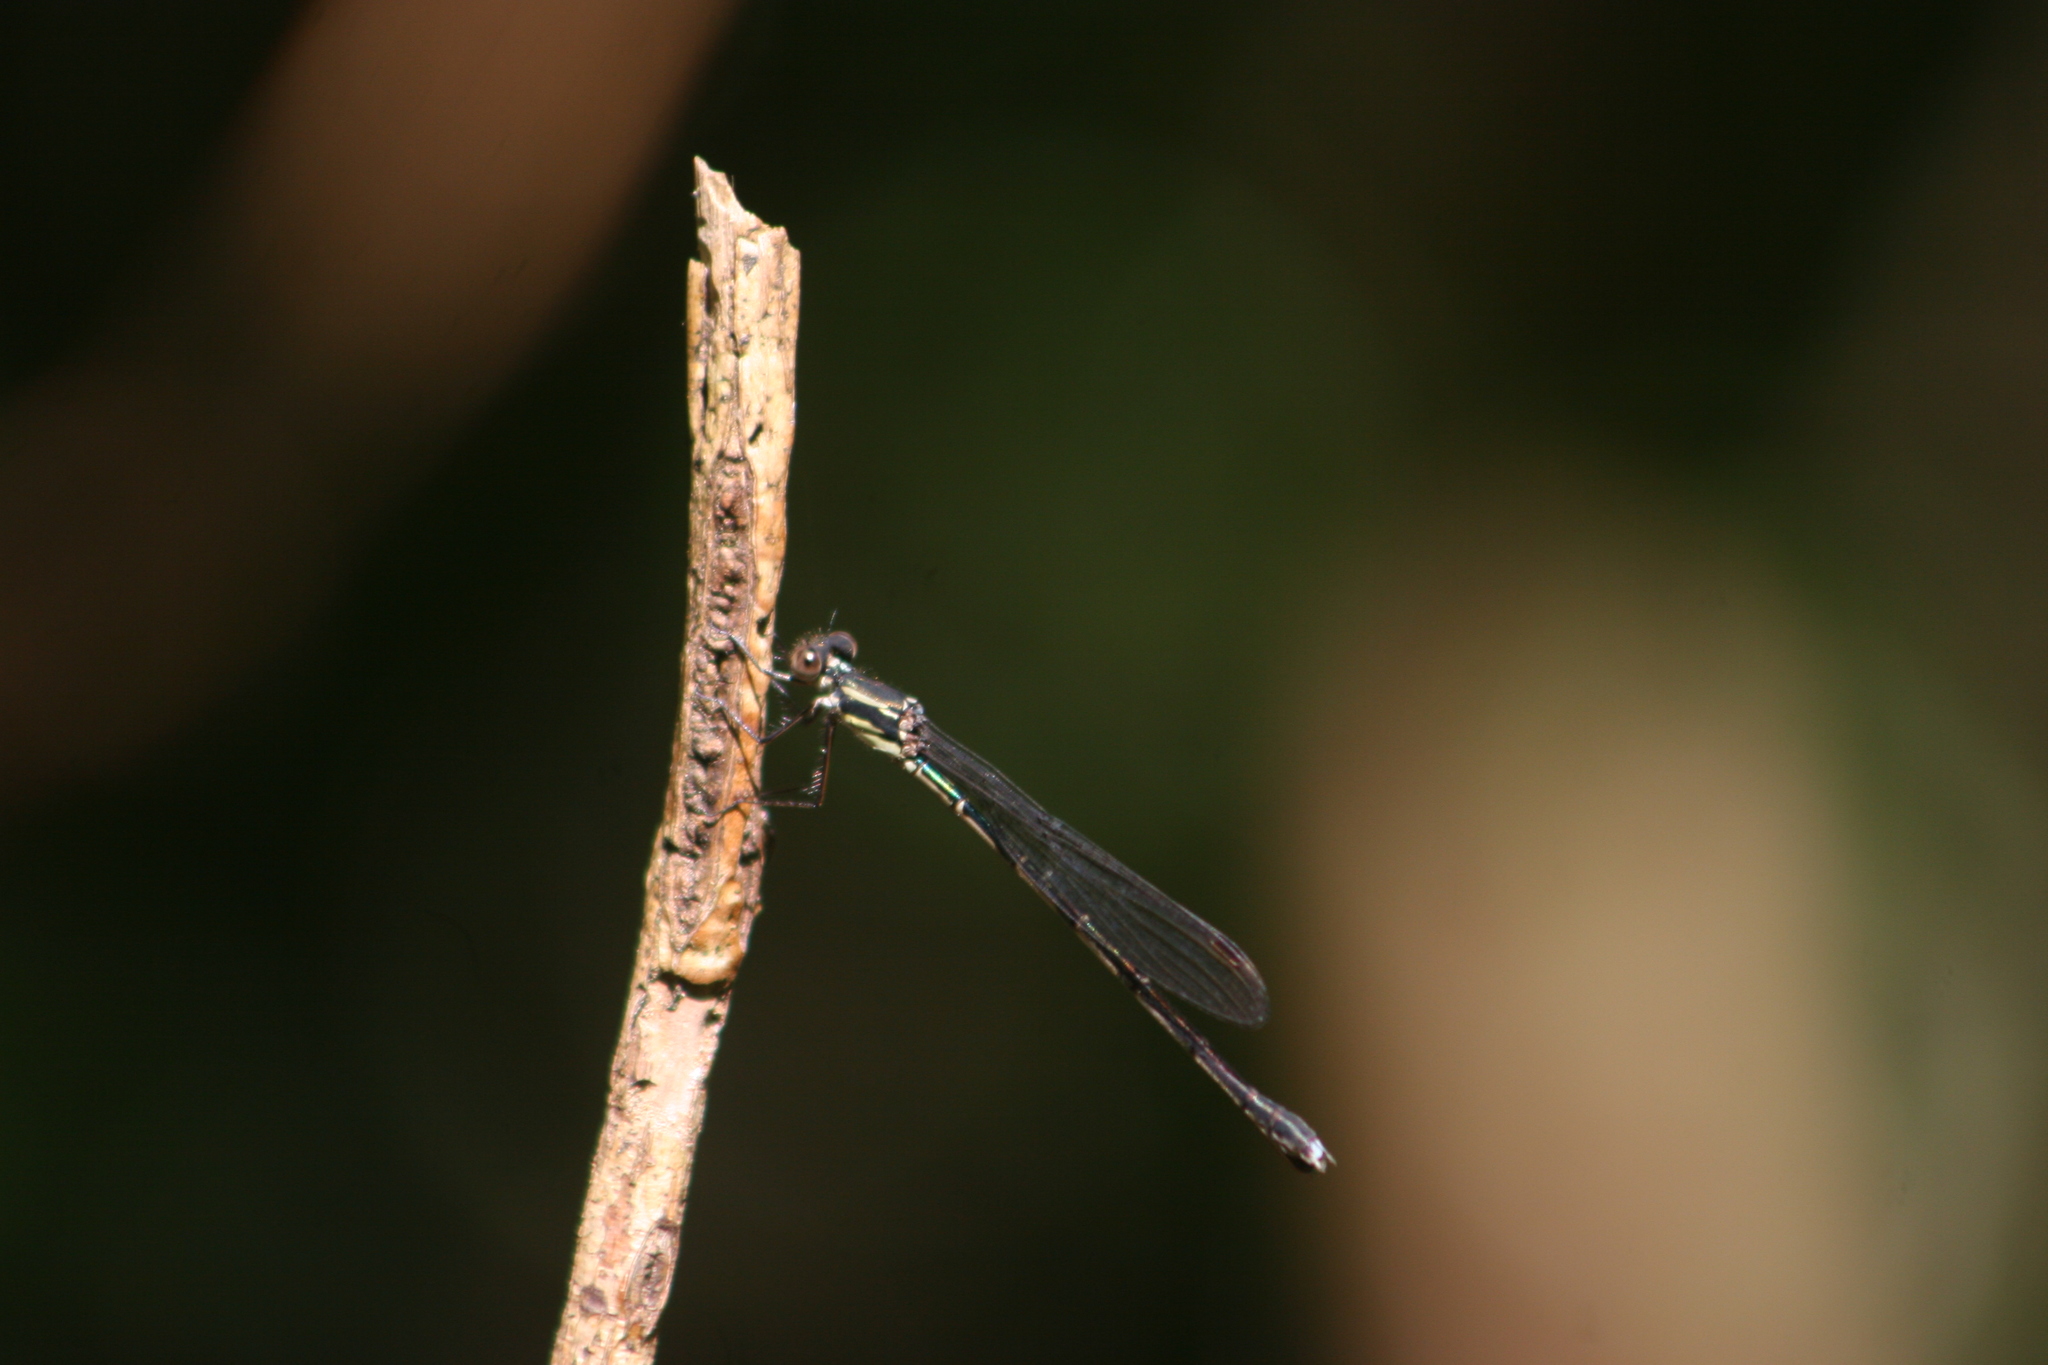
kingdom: Animalia
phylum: Arthropoda
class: Insecta
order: Odonata
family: Lestidae
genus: Austrolestes
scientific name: Austrolestes colensonis
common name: Blue damselfly
